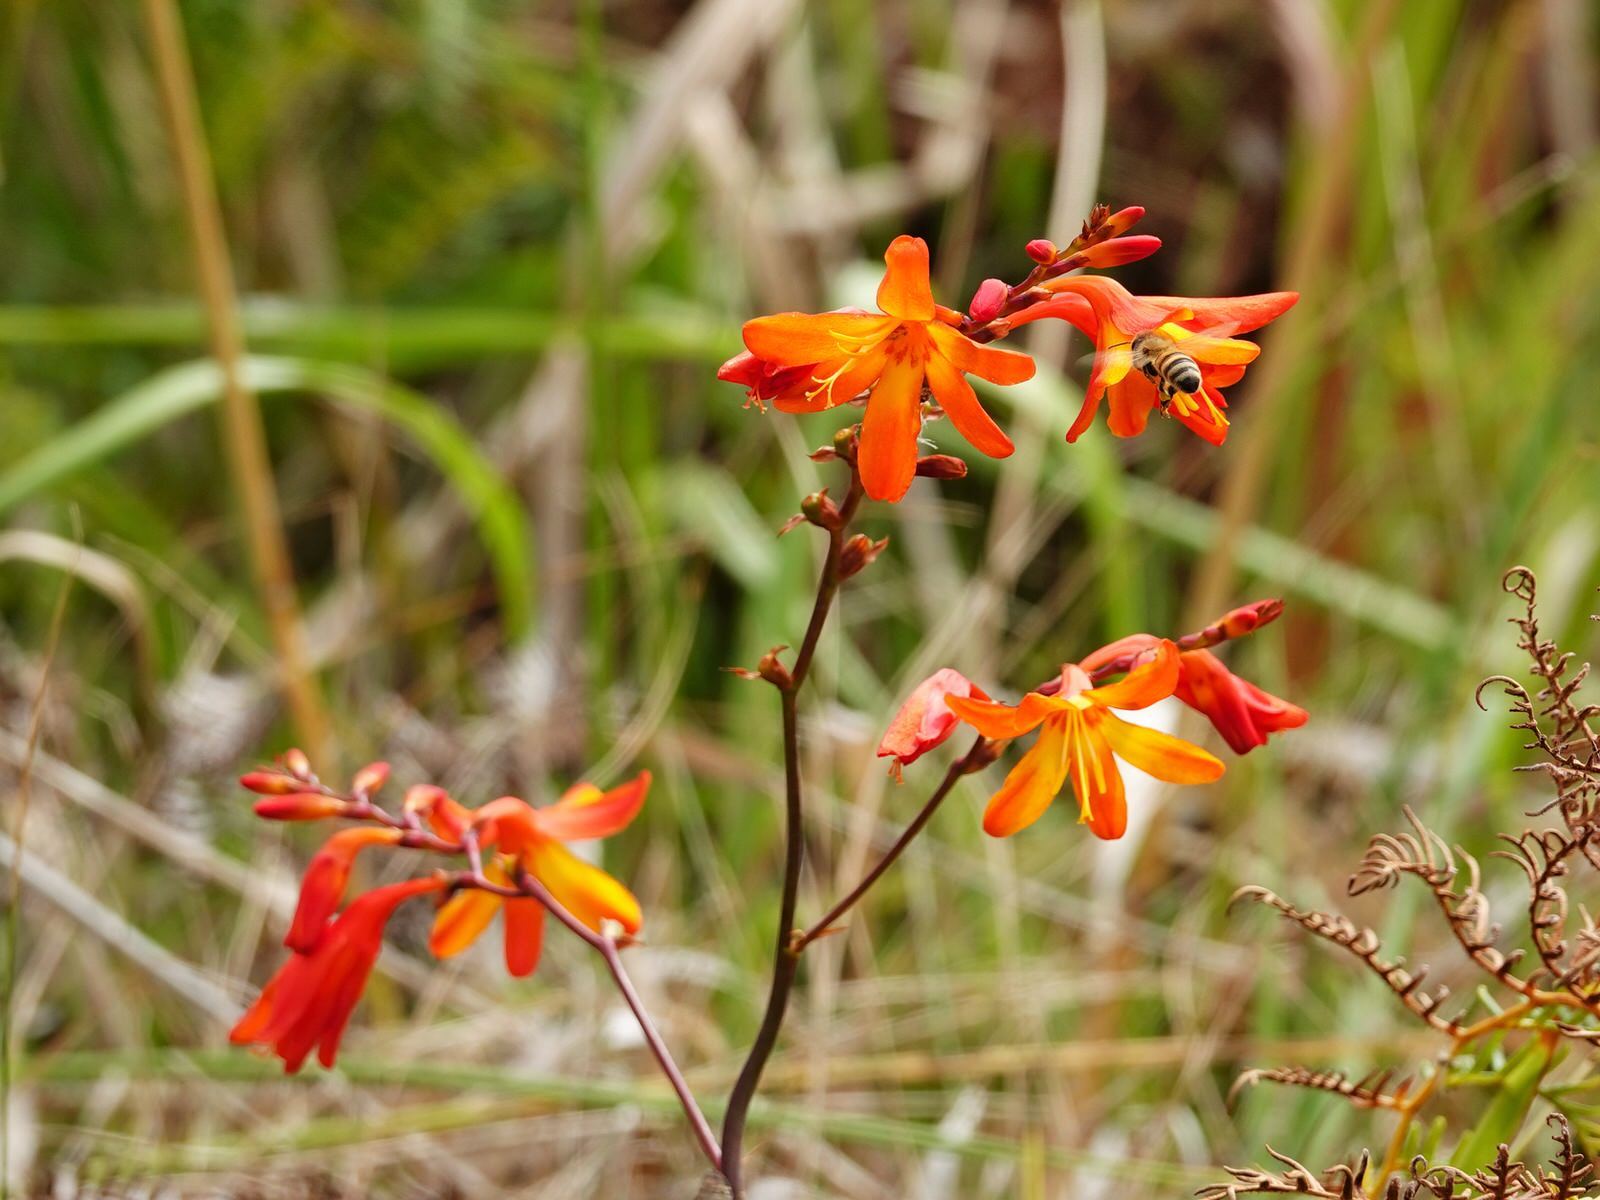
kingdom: Plantae
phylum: Tracheophyta
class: Liliopsida
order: Asparagales
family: Iridaceae
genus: Crocosmia
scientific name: Crocosmia crocosmiiflora
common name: Montbretia
